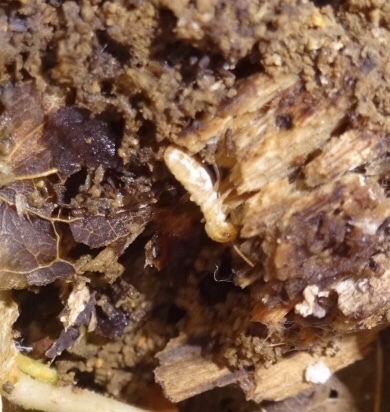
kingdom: Animalia
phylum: Arthropoda
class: Insecta
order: Blattodea
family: Rhinotermitidae
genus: Reticulitermes
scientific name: Reticulitermes flavipes
